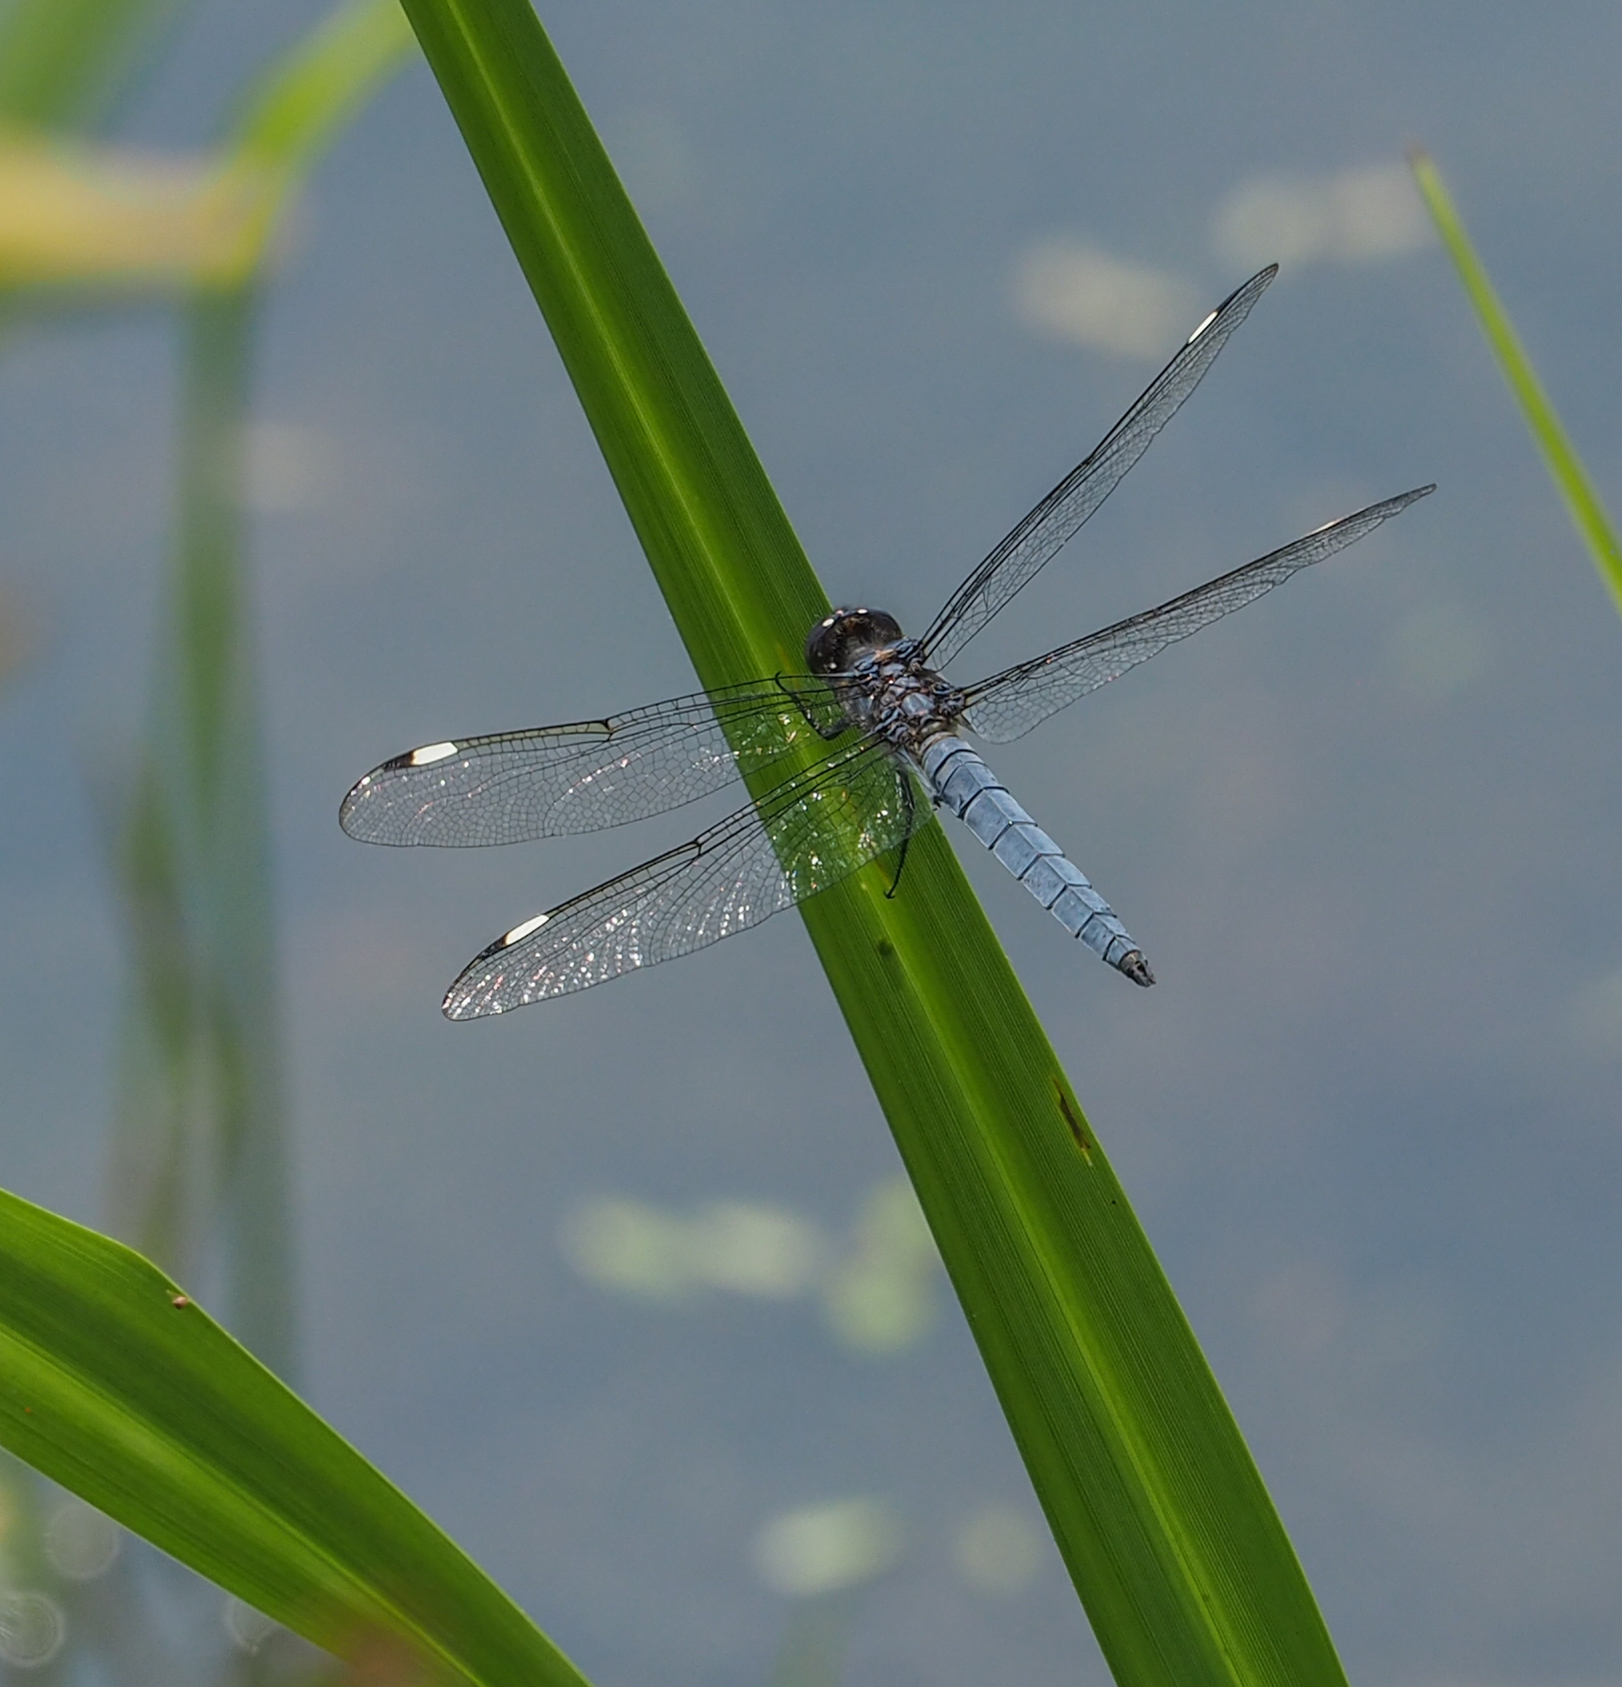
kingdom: Animalia
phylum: Arthropoda
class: Insecta
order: Odonata
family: Libellulidae
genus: Libellula
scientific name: Libellula cyanea
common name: Spangled skimmer
